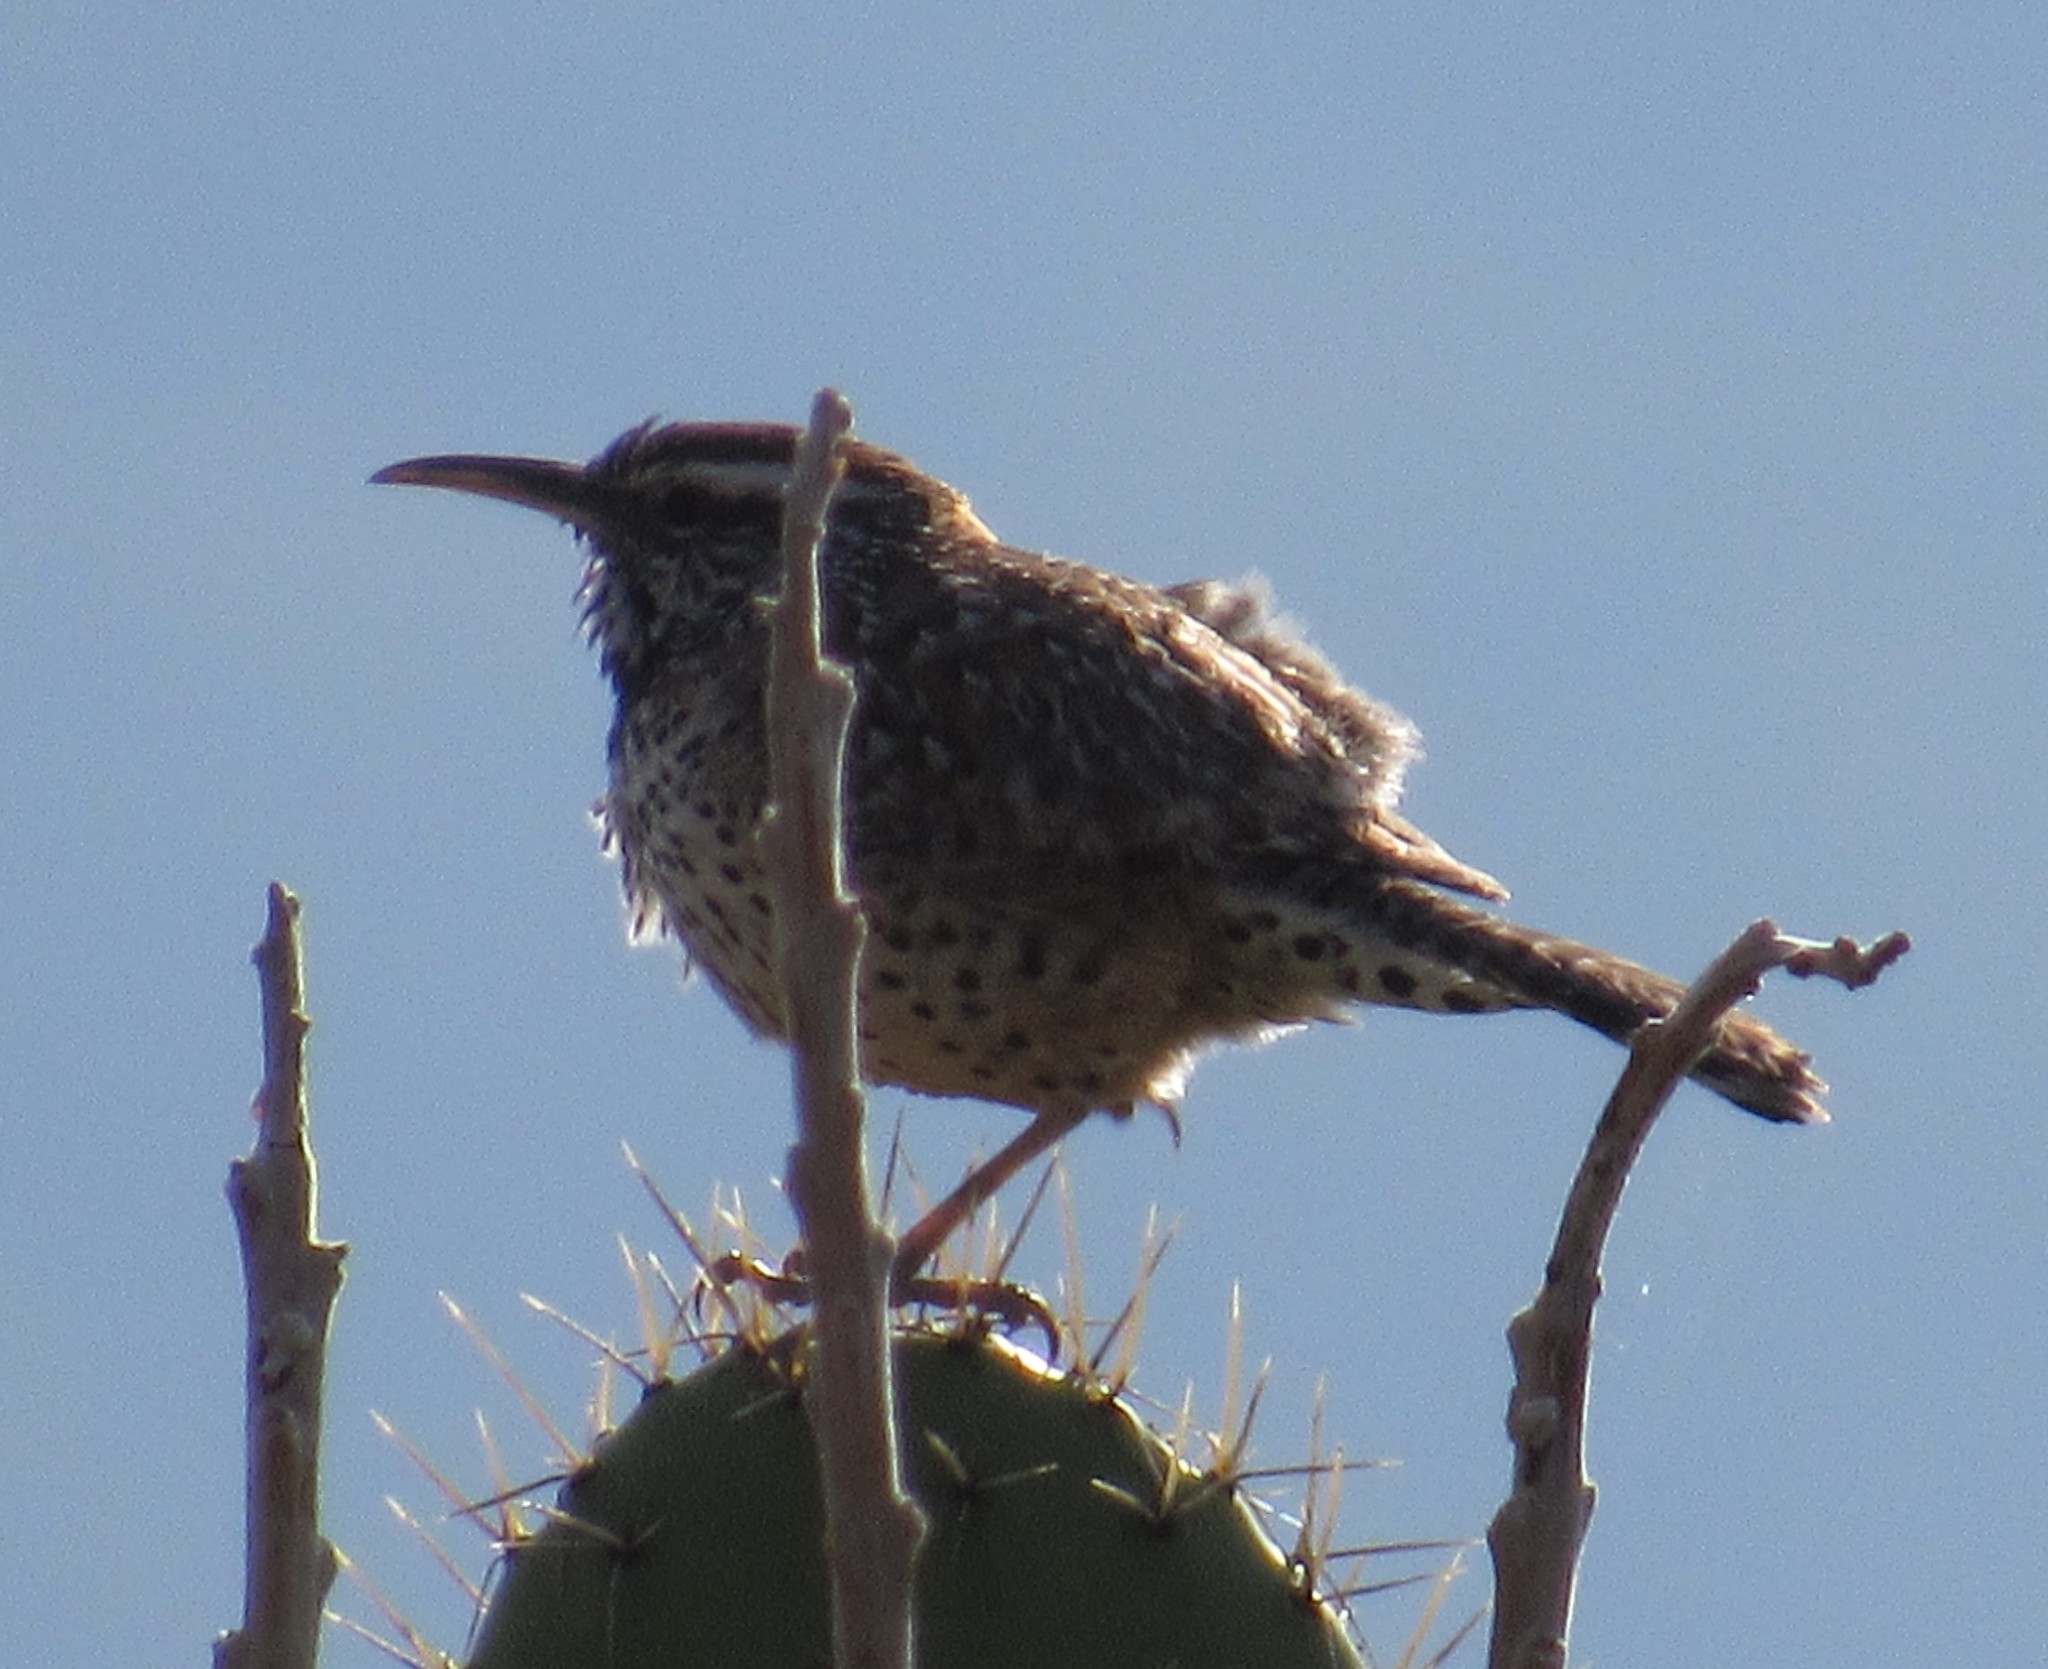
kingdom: Animalia
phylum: Chordata
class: Aves
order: Passeriformes
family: Troglodytidae
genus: Campylorhynchus
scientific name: Campylorhynchus brunneicapillus
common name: Cactus wren
